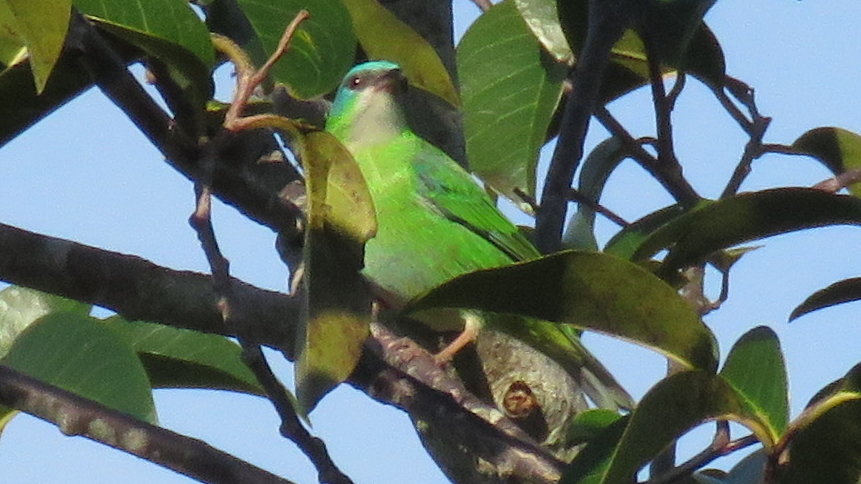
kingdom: Animalia
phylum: Chordata
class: Aves
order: Passeriformes
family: Thraupidae
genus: Dacnis
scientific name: Dacnis cayana
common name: Blue dacnis
